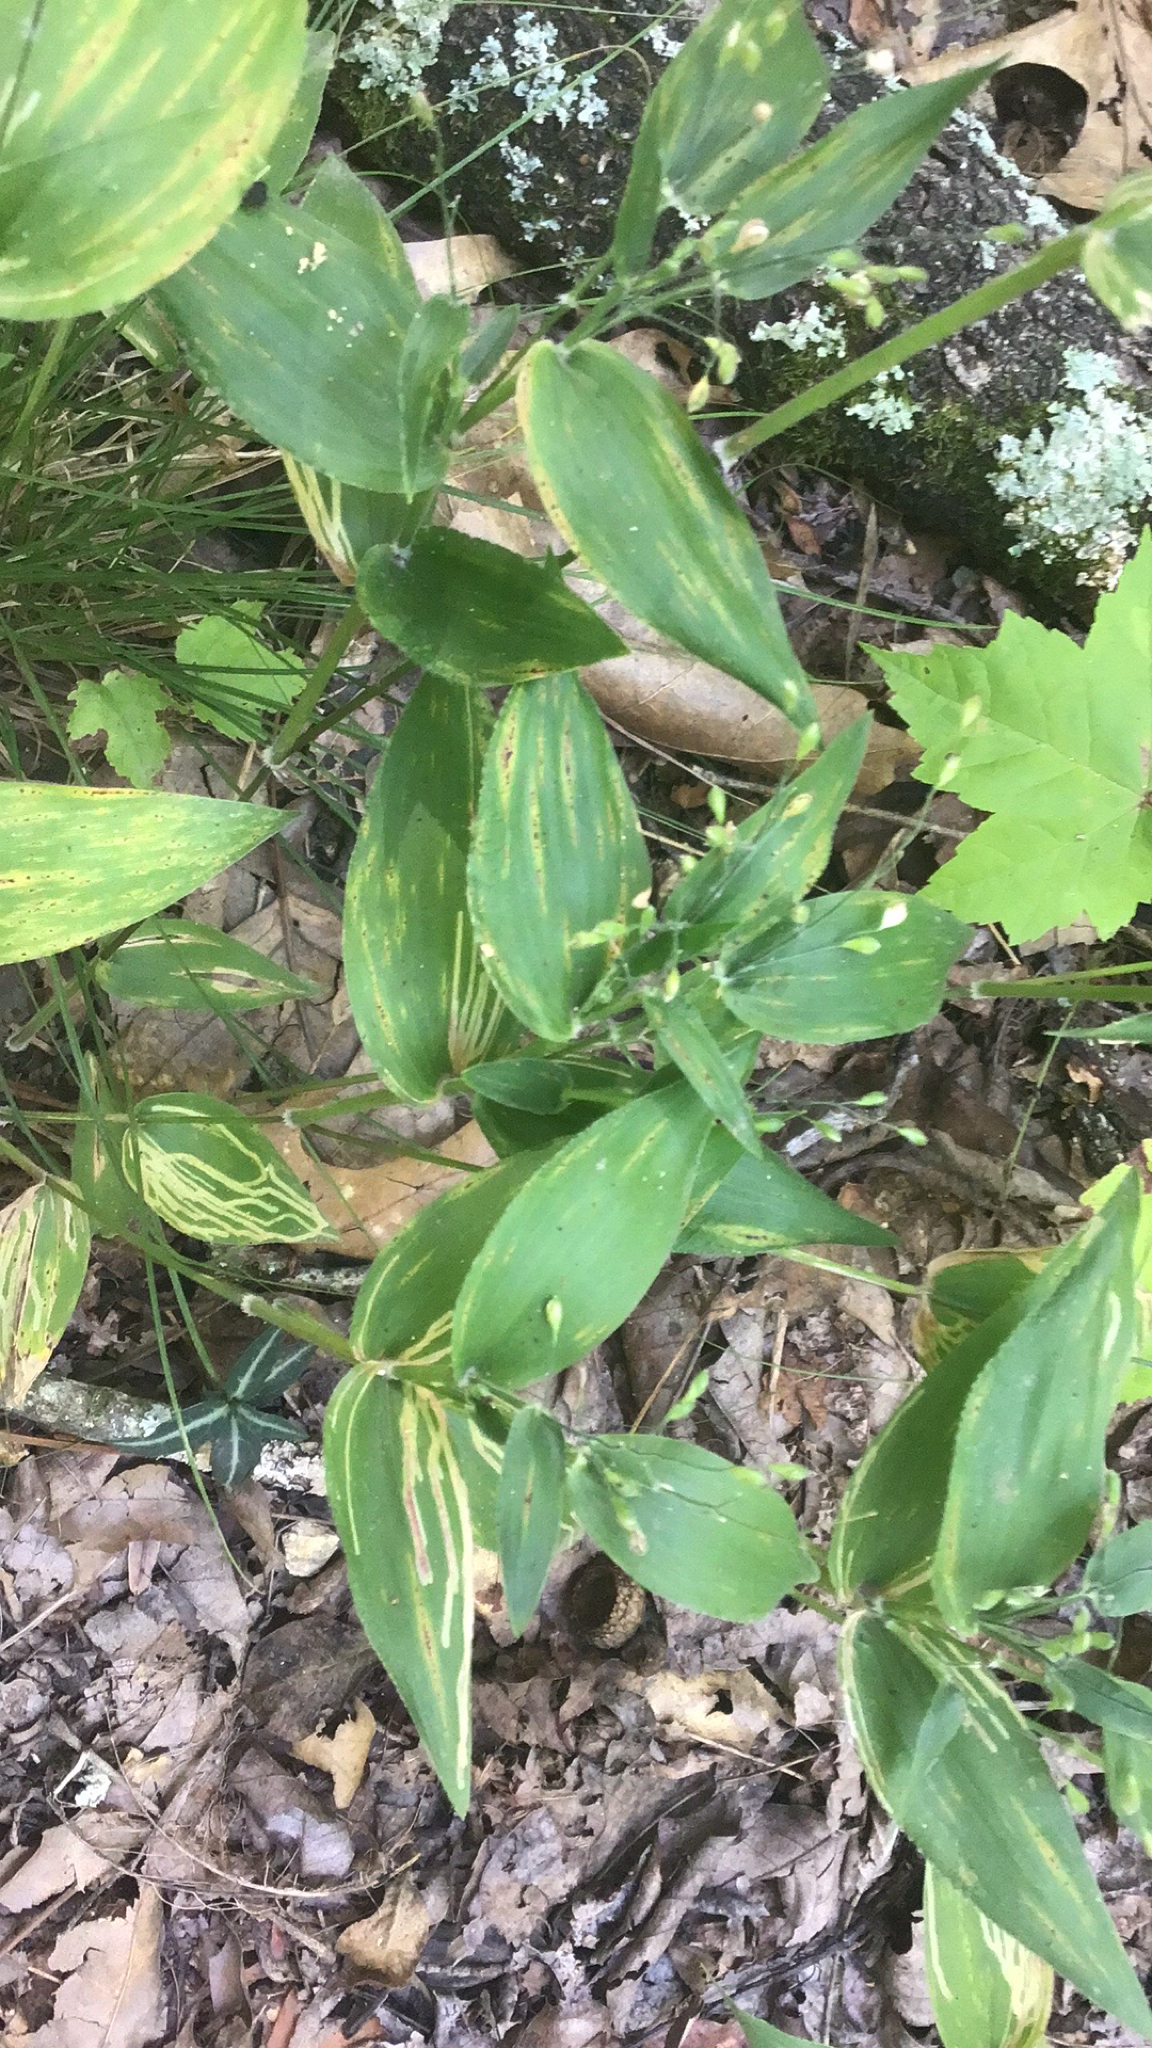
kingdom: Plantae
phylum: Tracheophyta
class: Liliopsida
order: Poales
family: Poaceae
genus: Dichanthelium
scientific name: Dichanthelium latifolium
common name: Broad-leaved panicgrass
